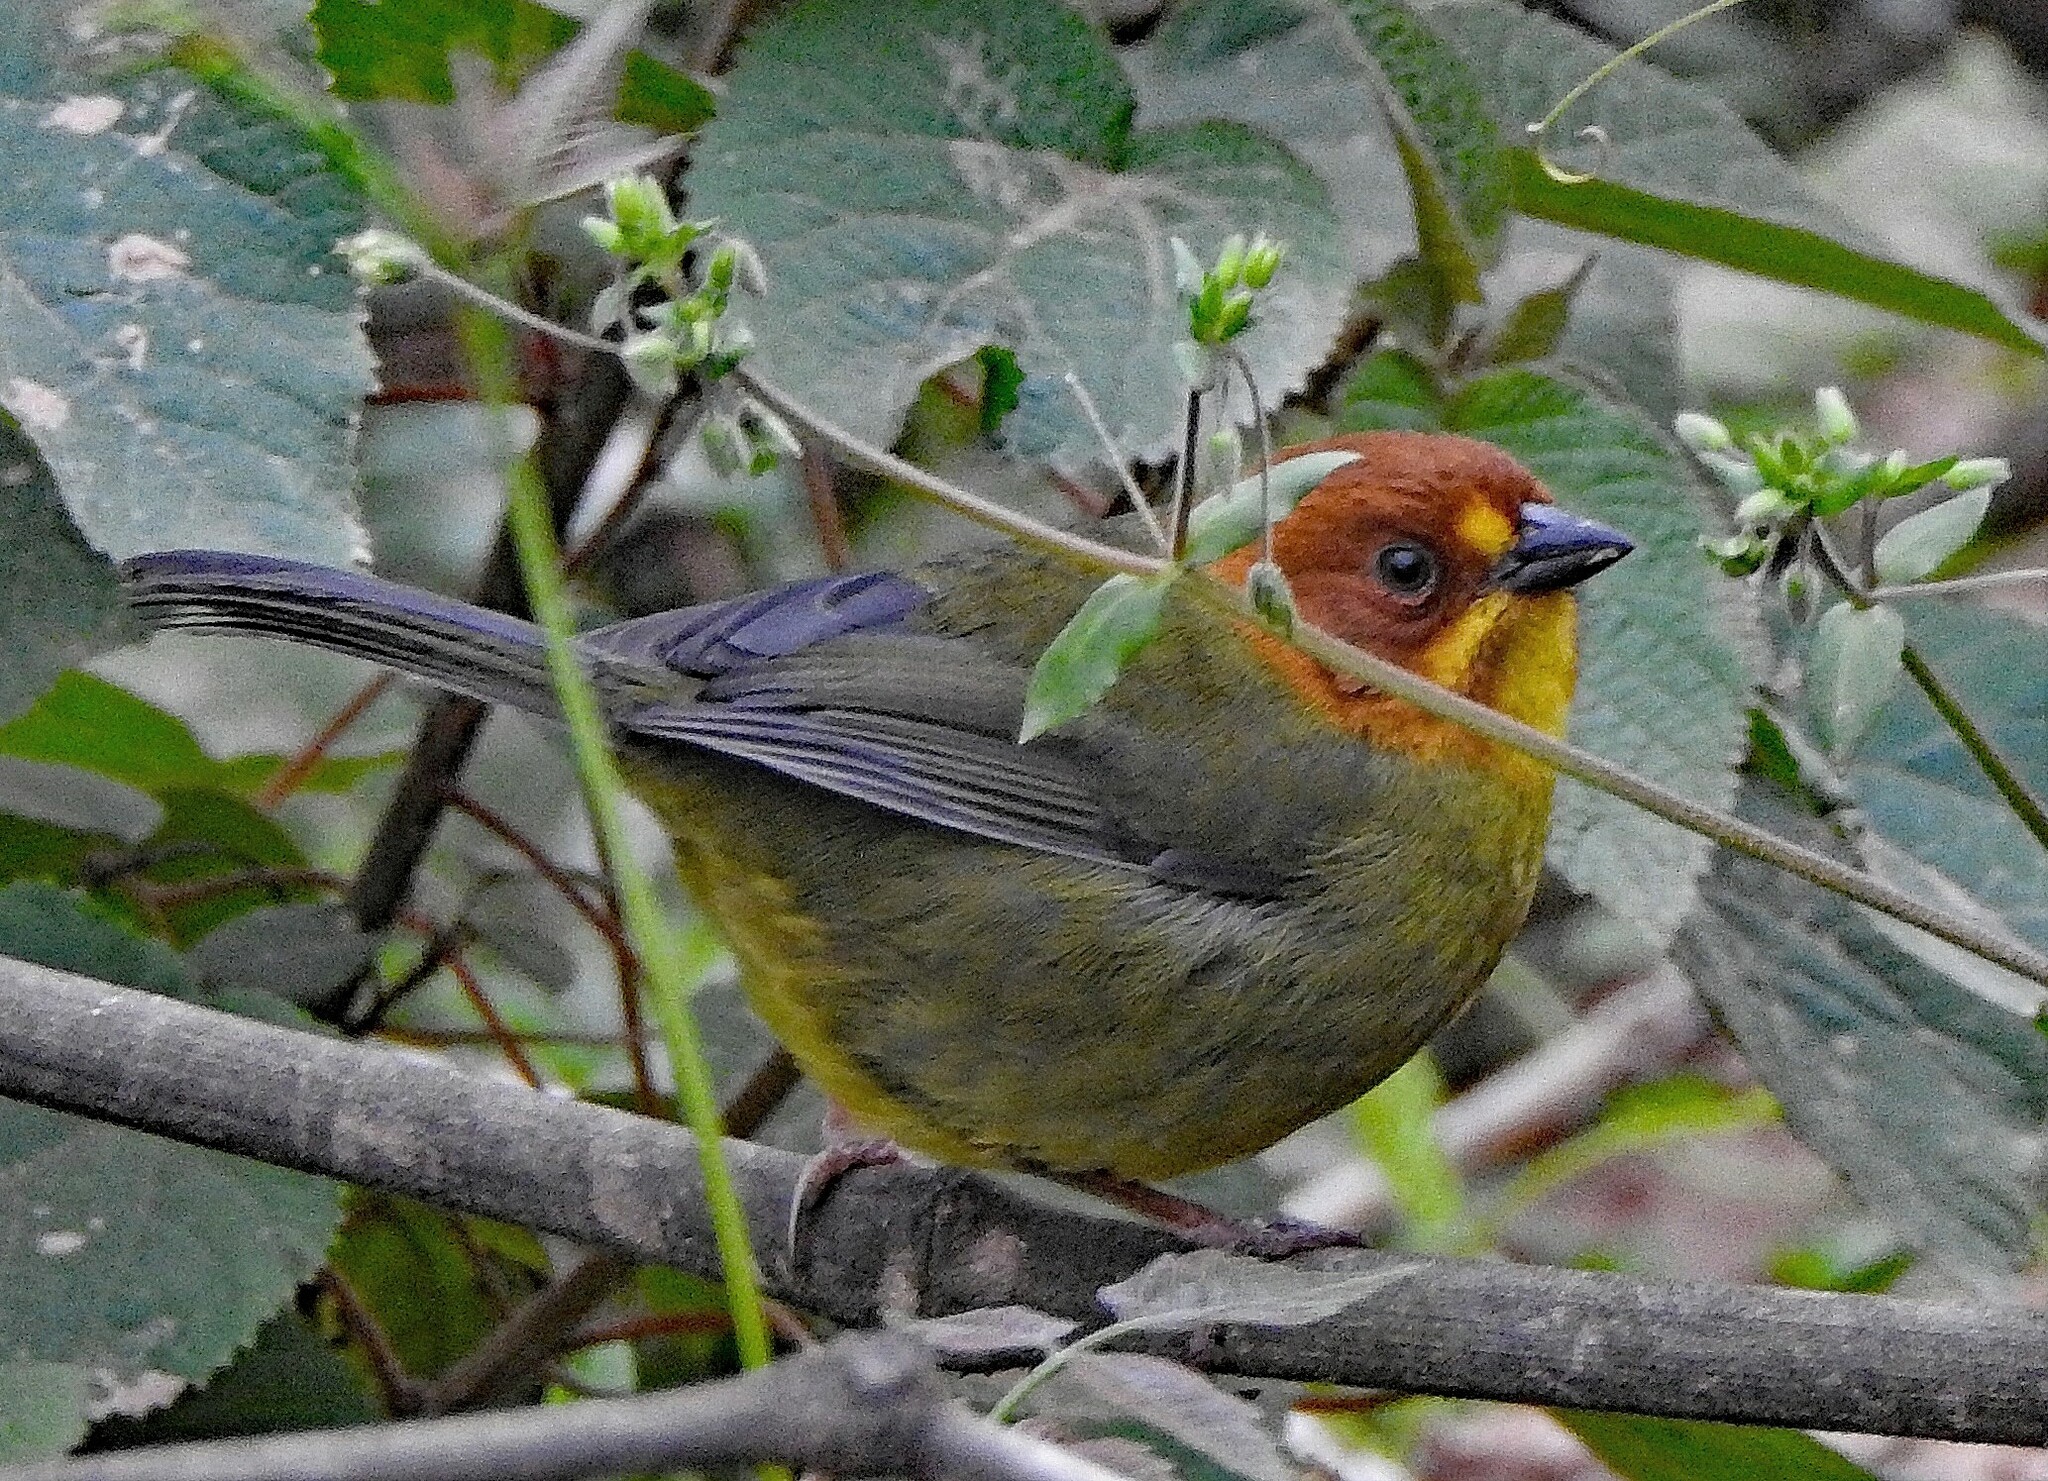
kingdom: Animalia
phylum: Chordata
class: Aves
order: Passeriformes
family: Passerellidae
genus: Atlapetes
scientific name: Atlapetes fulviceps
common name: Fulvous-headed brushfinch
